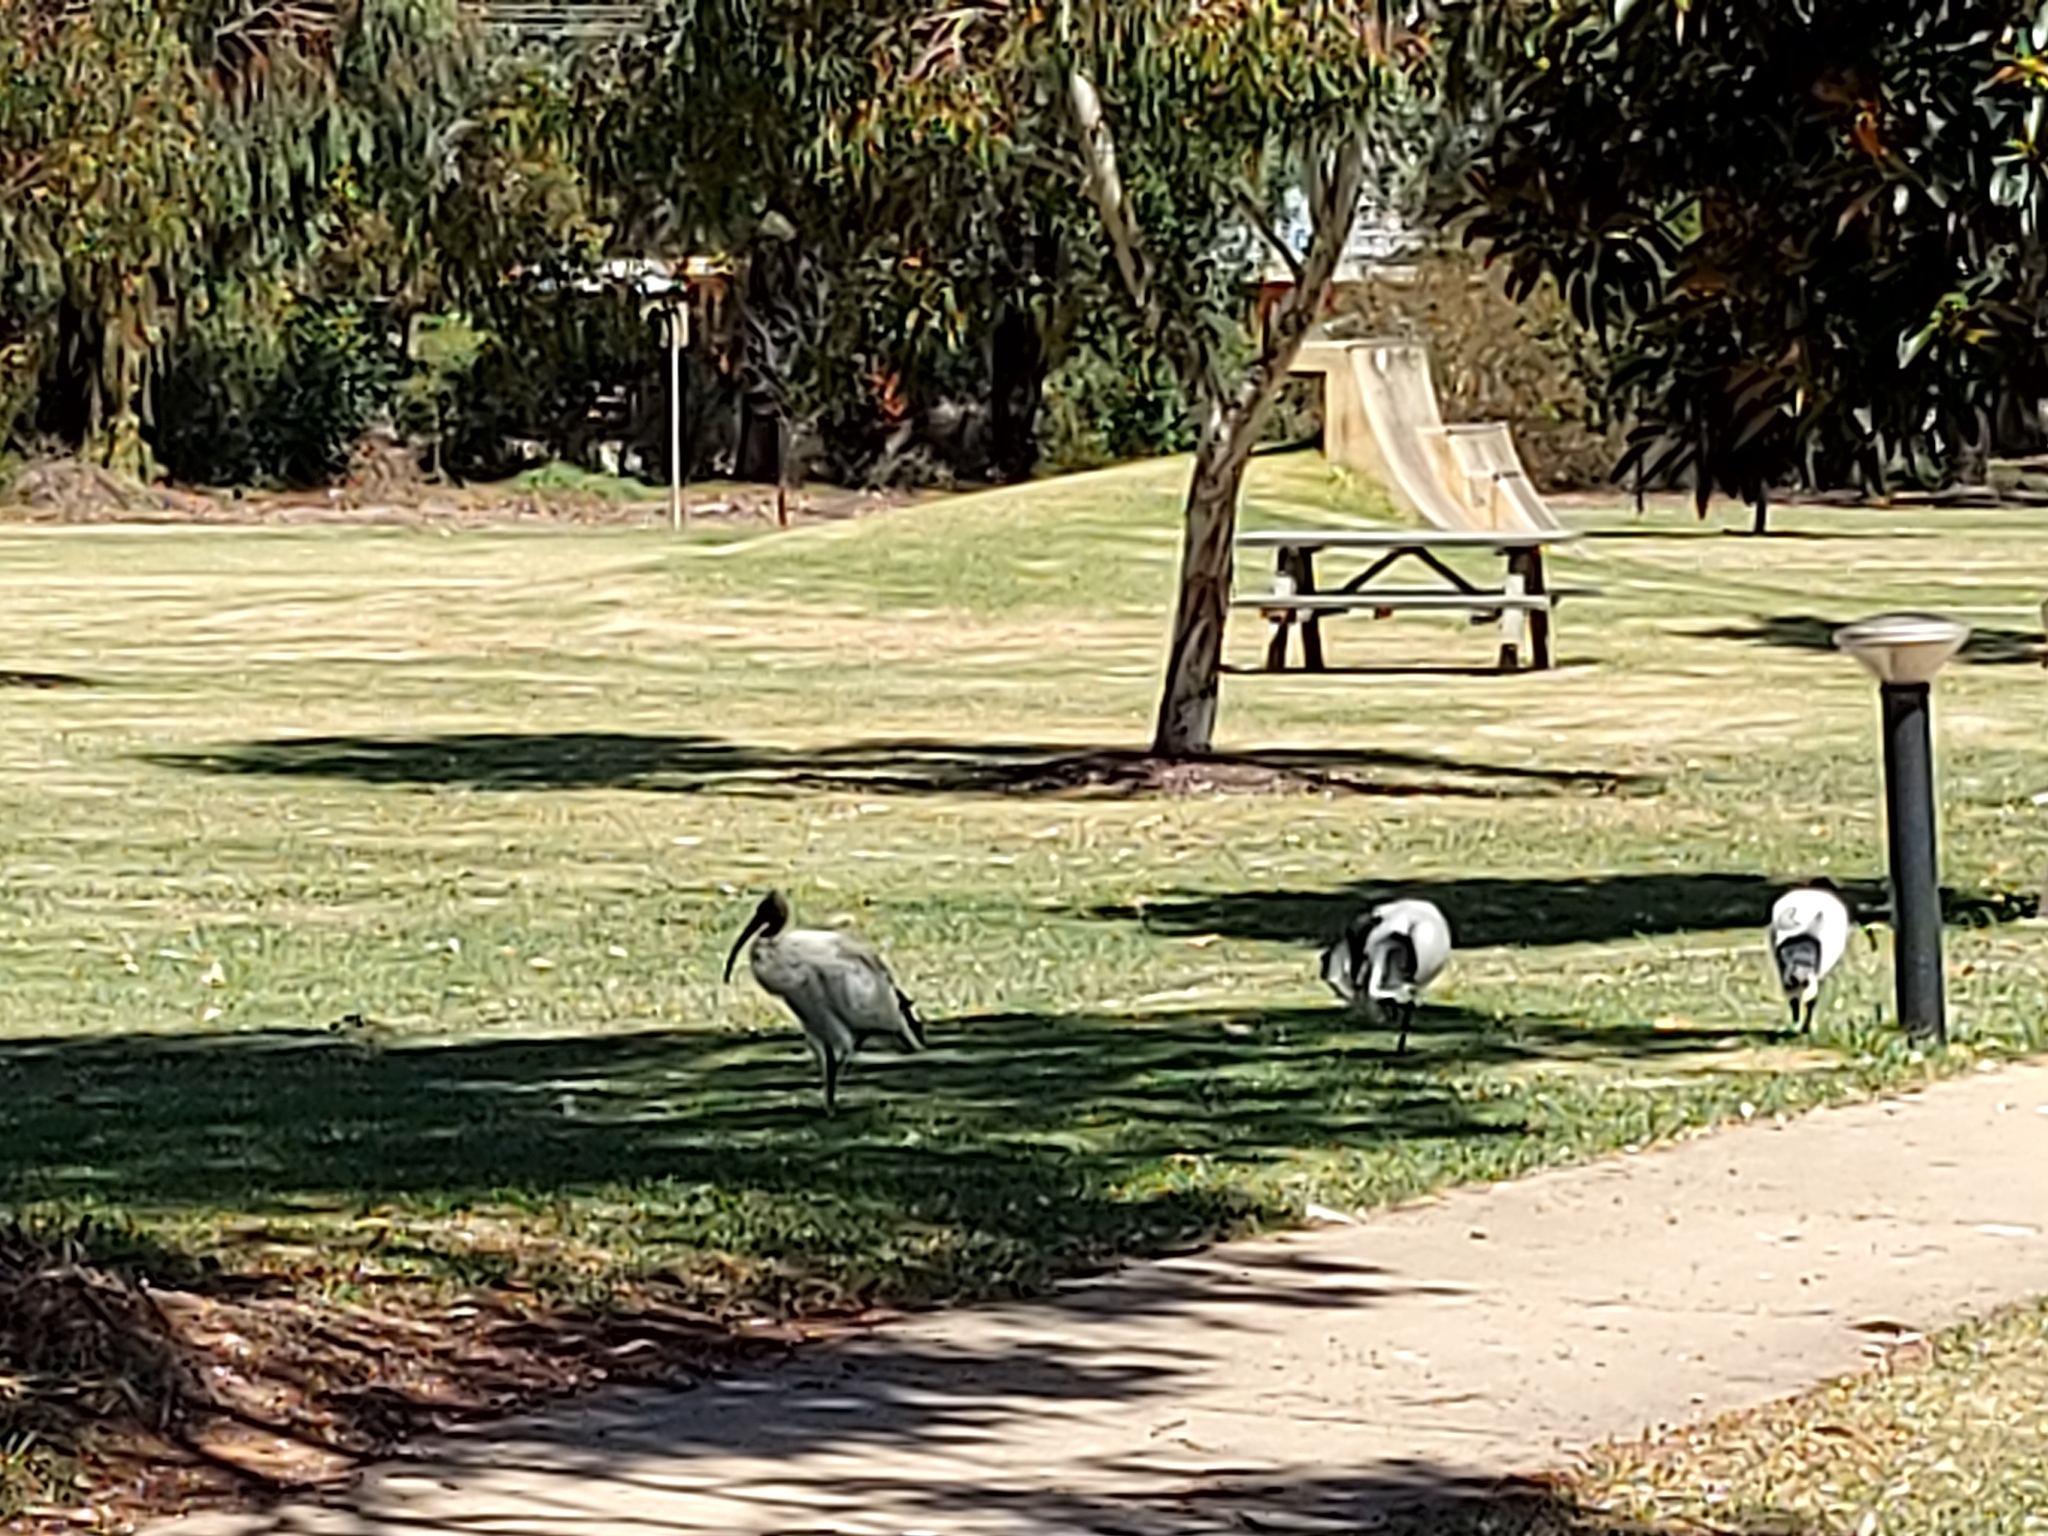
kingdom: Animalia
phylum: Chordata
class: Aves
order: Pelecaniformes
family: Threskiornithidae
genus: Threskiornis
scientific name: Threskiornis molucca
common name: Australian white ibis
